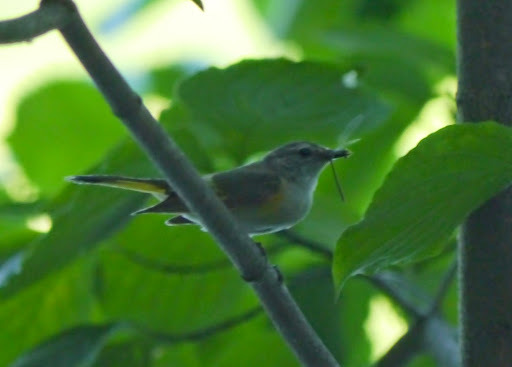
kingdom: Animalia
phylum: Chordata
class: Aves
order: Passeriformes
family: Parulidae
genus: Setophaga
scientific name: Setophaga ruticilla
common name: American redstart
